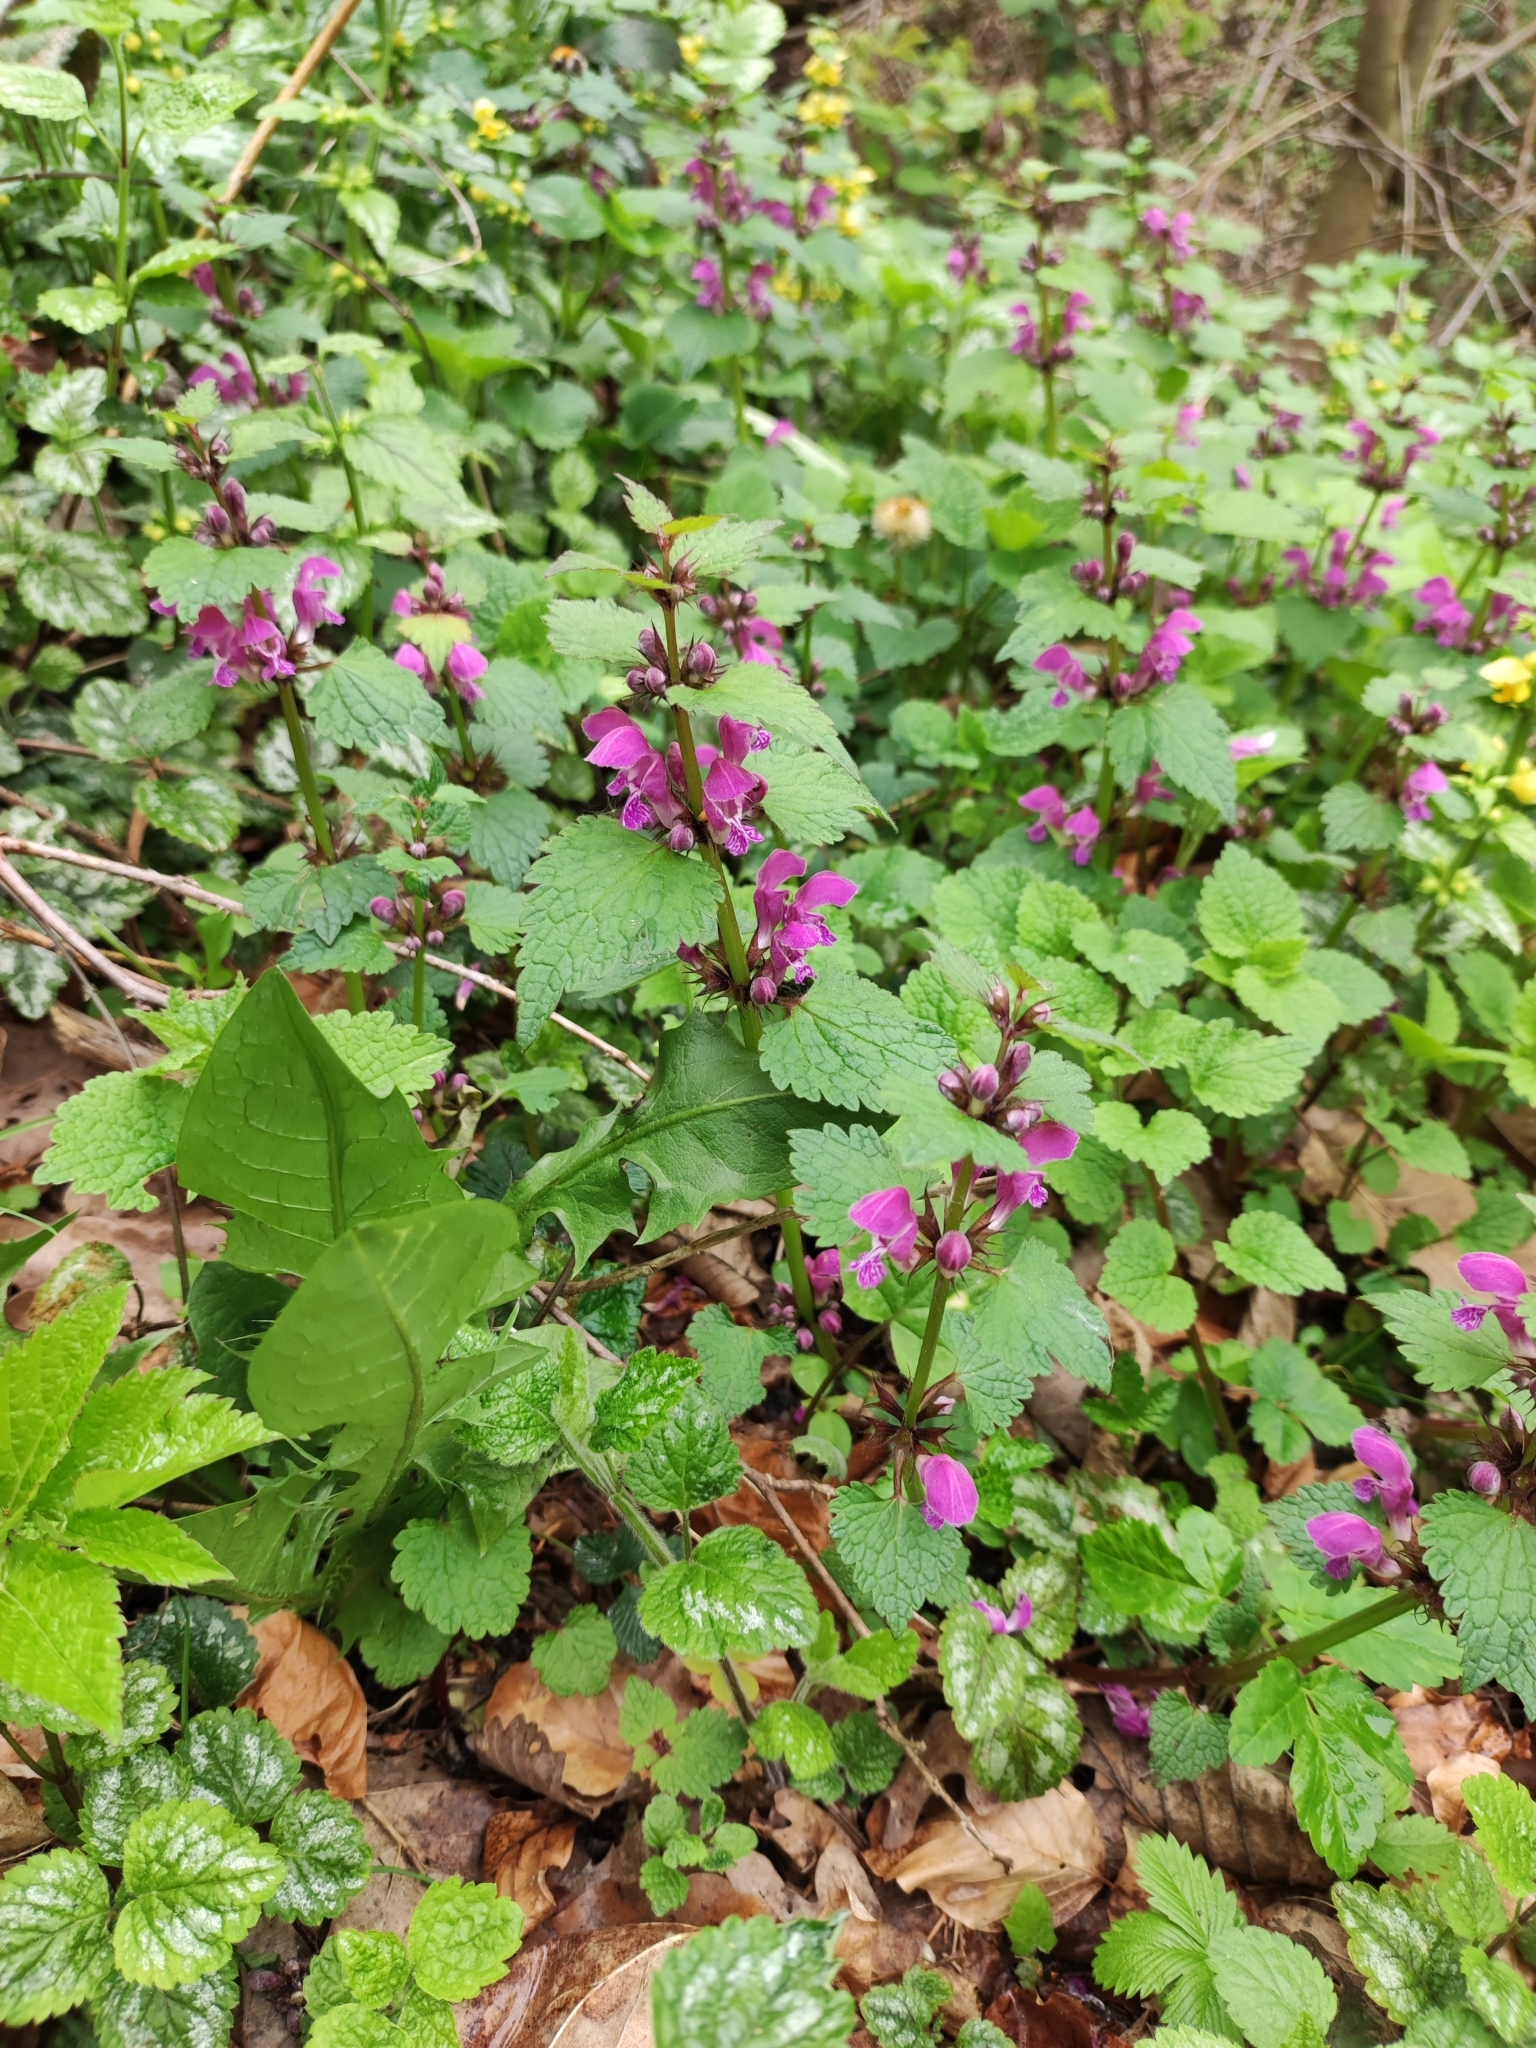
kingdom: Plantae
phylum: Tracheophyta
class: Magnoliopsida
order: Lamiales
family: Lamiaceae
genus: Lamium
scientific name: Lamium maculatum
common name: Spotted dead-nettle
